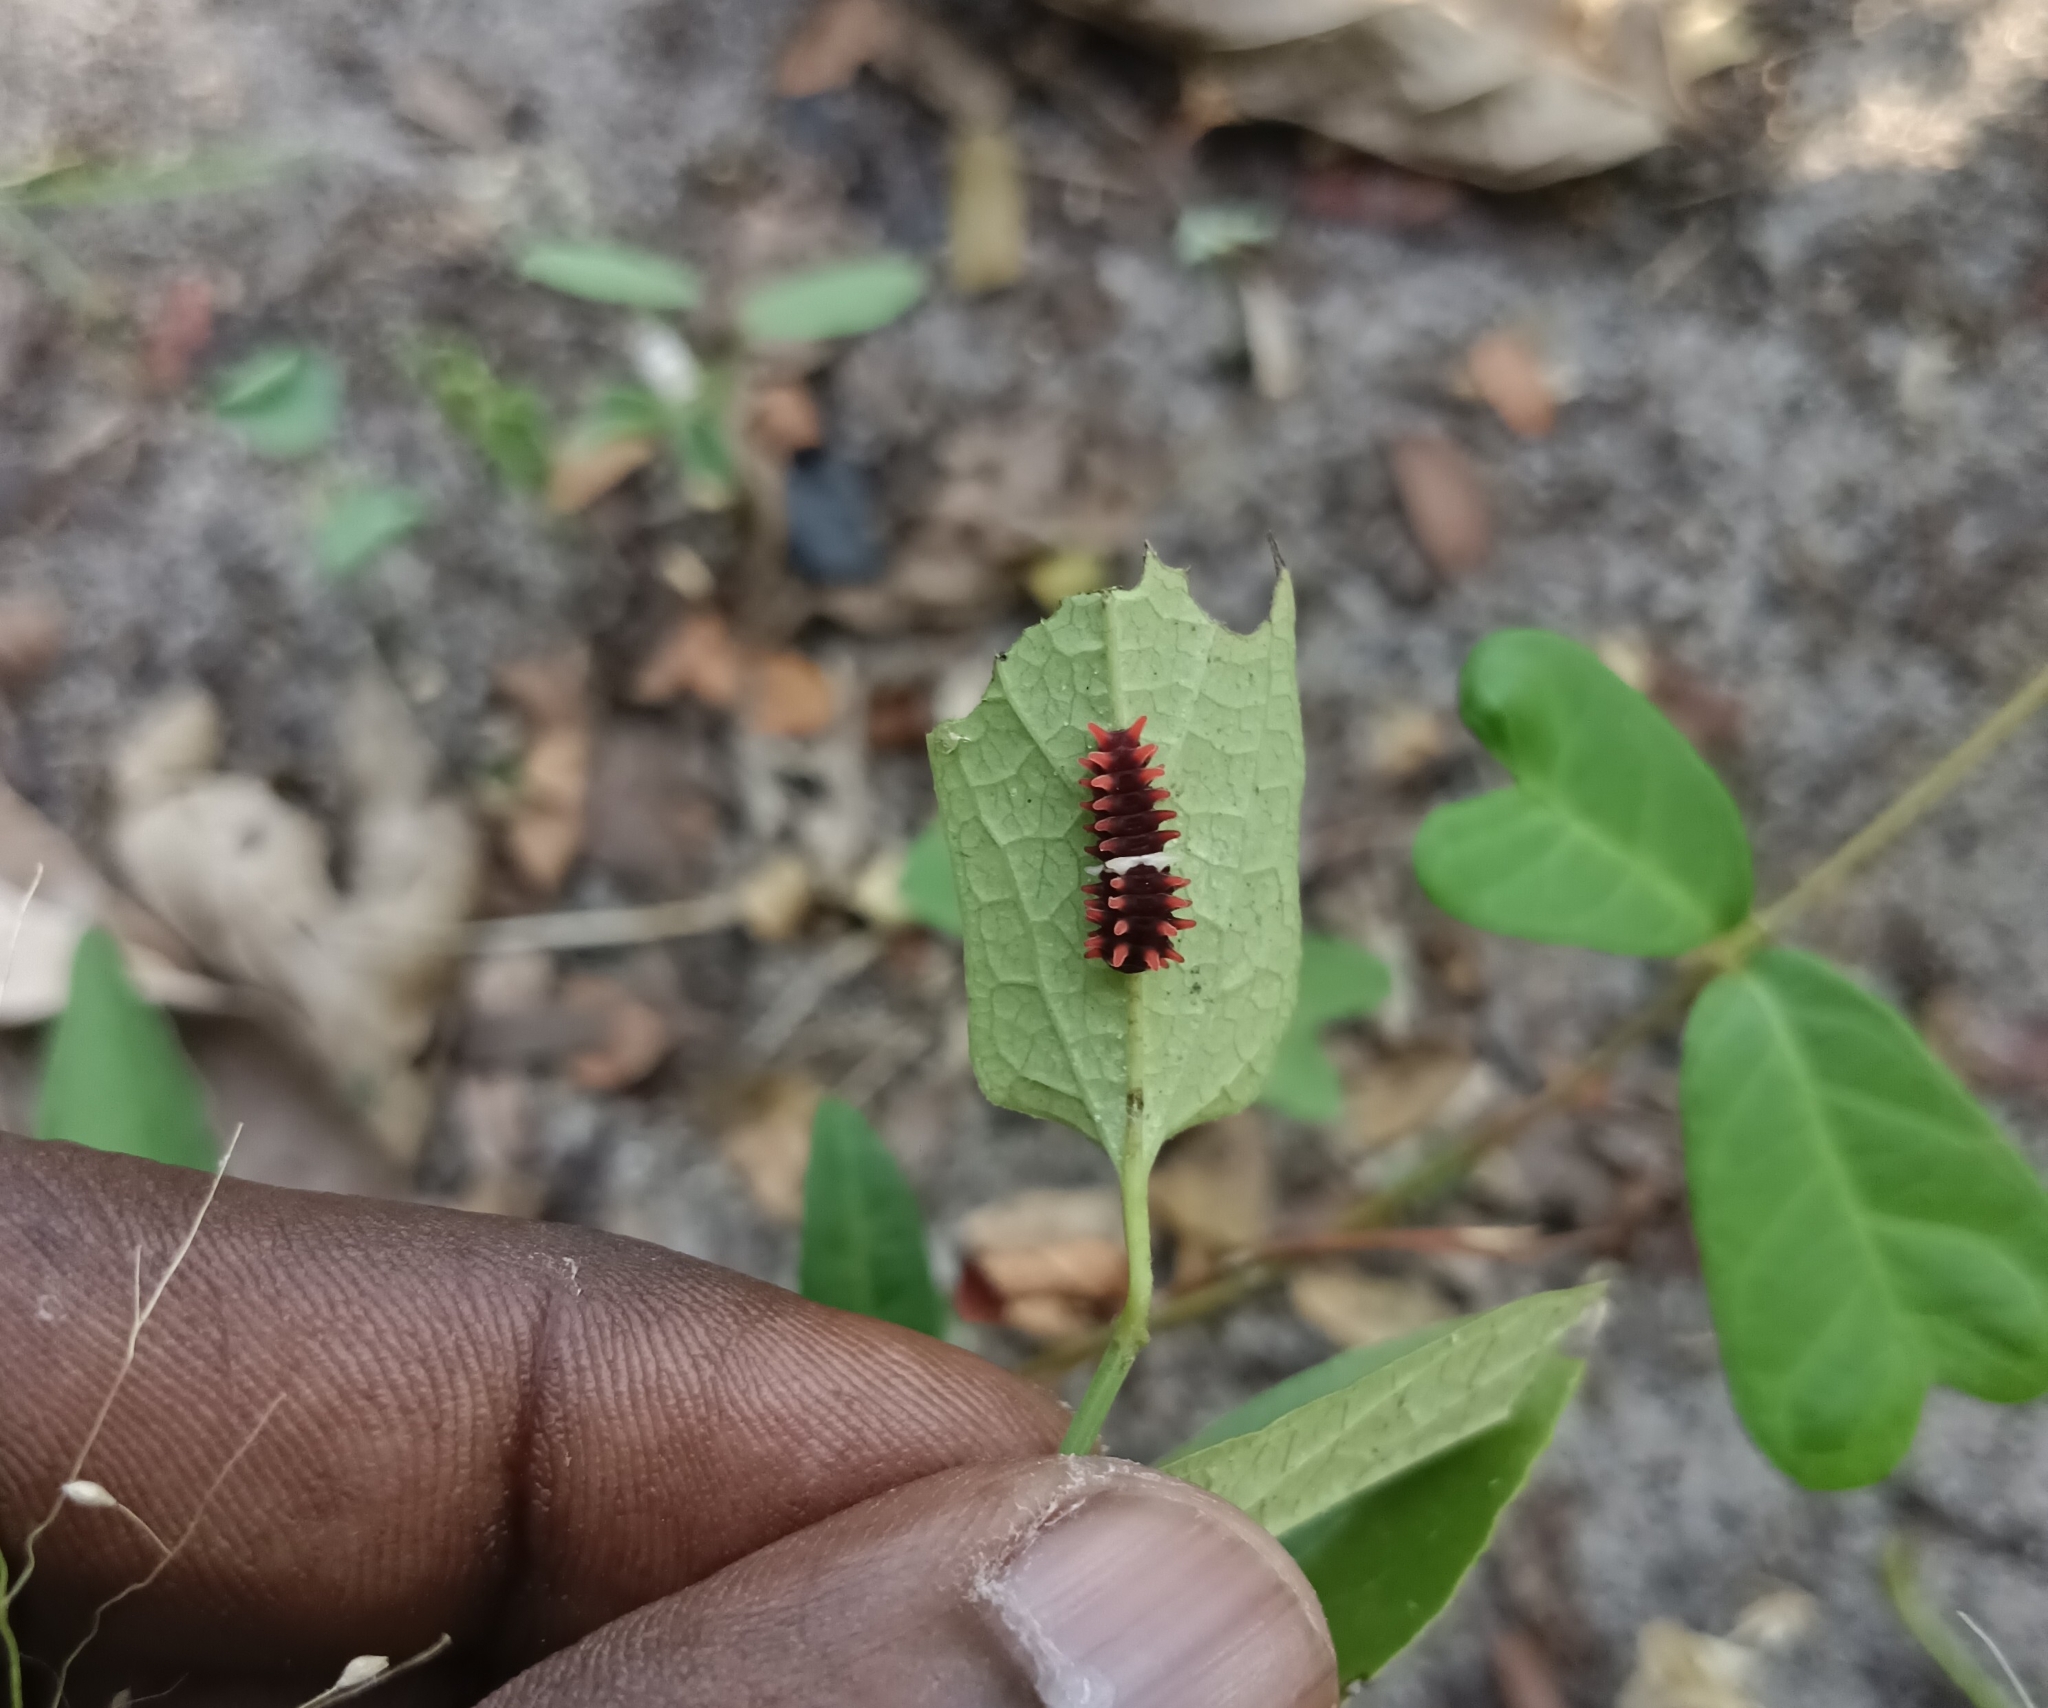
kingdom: Animalia
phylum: Arthropoda
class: Insecta
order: Lepidoptera
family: Papilionidae
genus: Pachliopta
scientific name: Pachliopta aristolochiae
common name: Common rose
